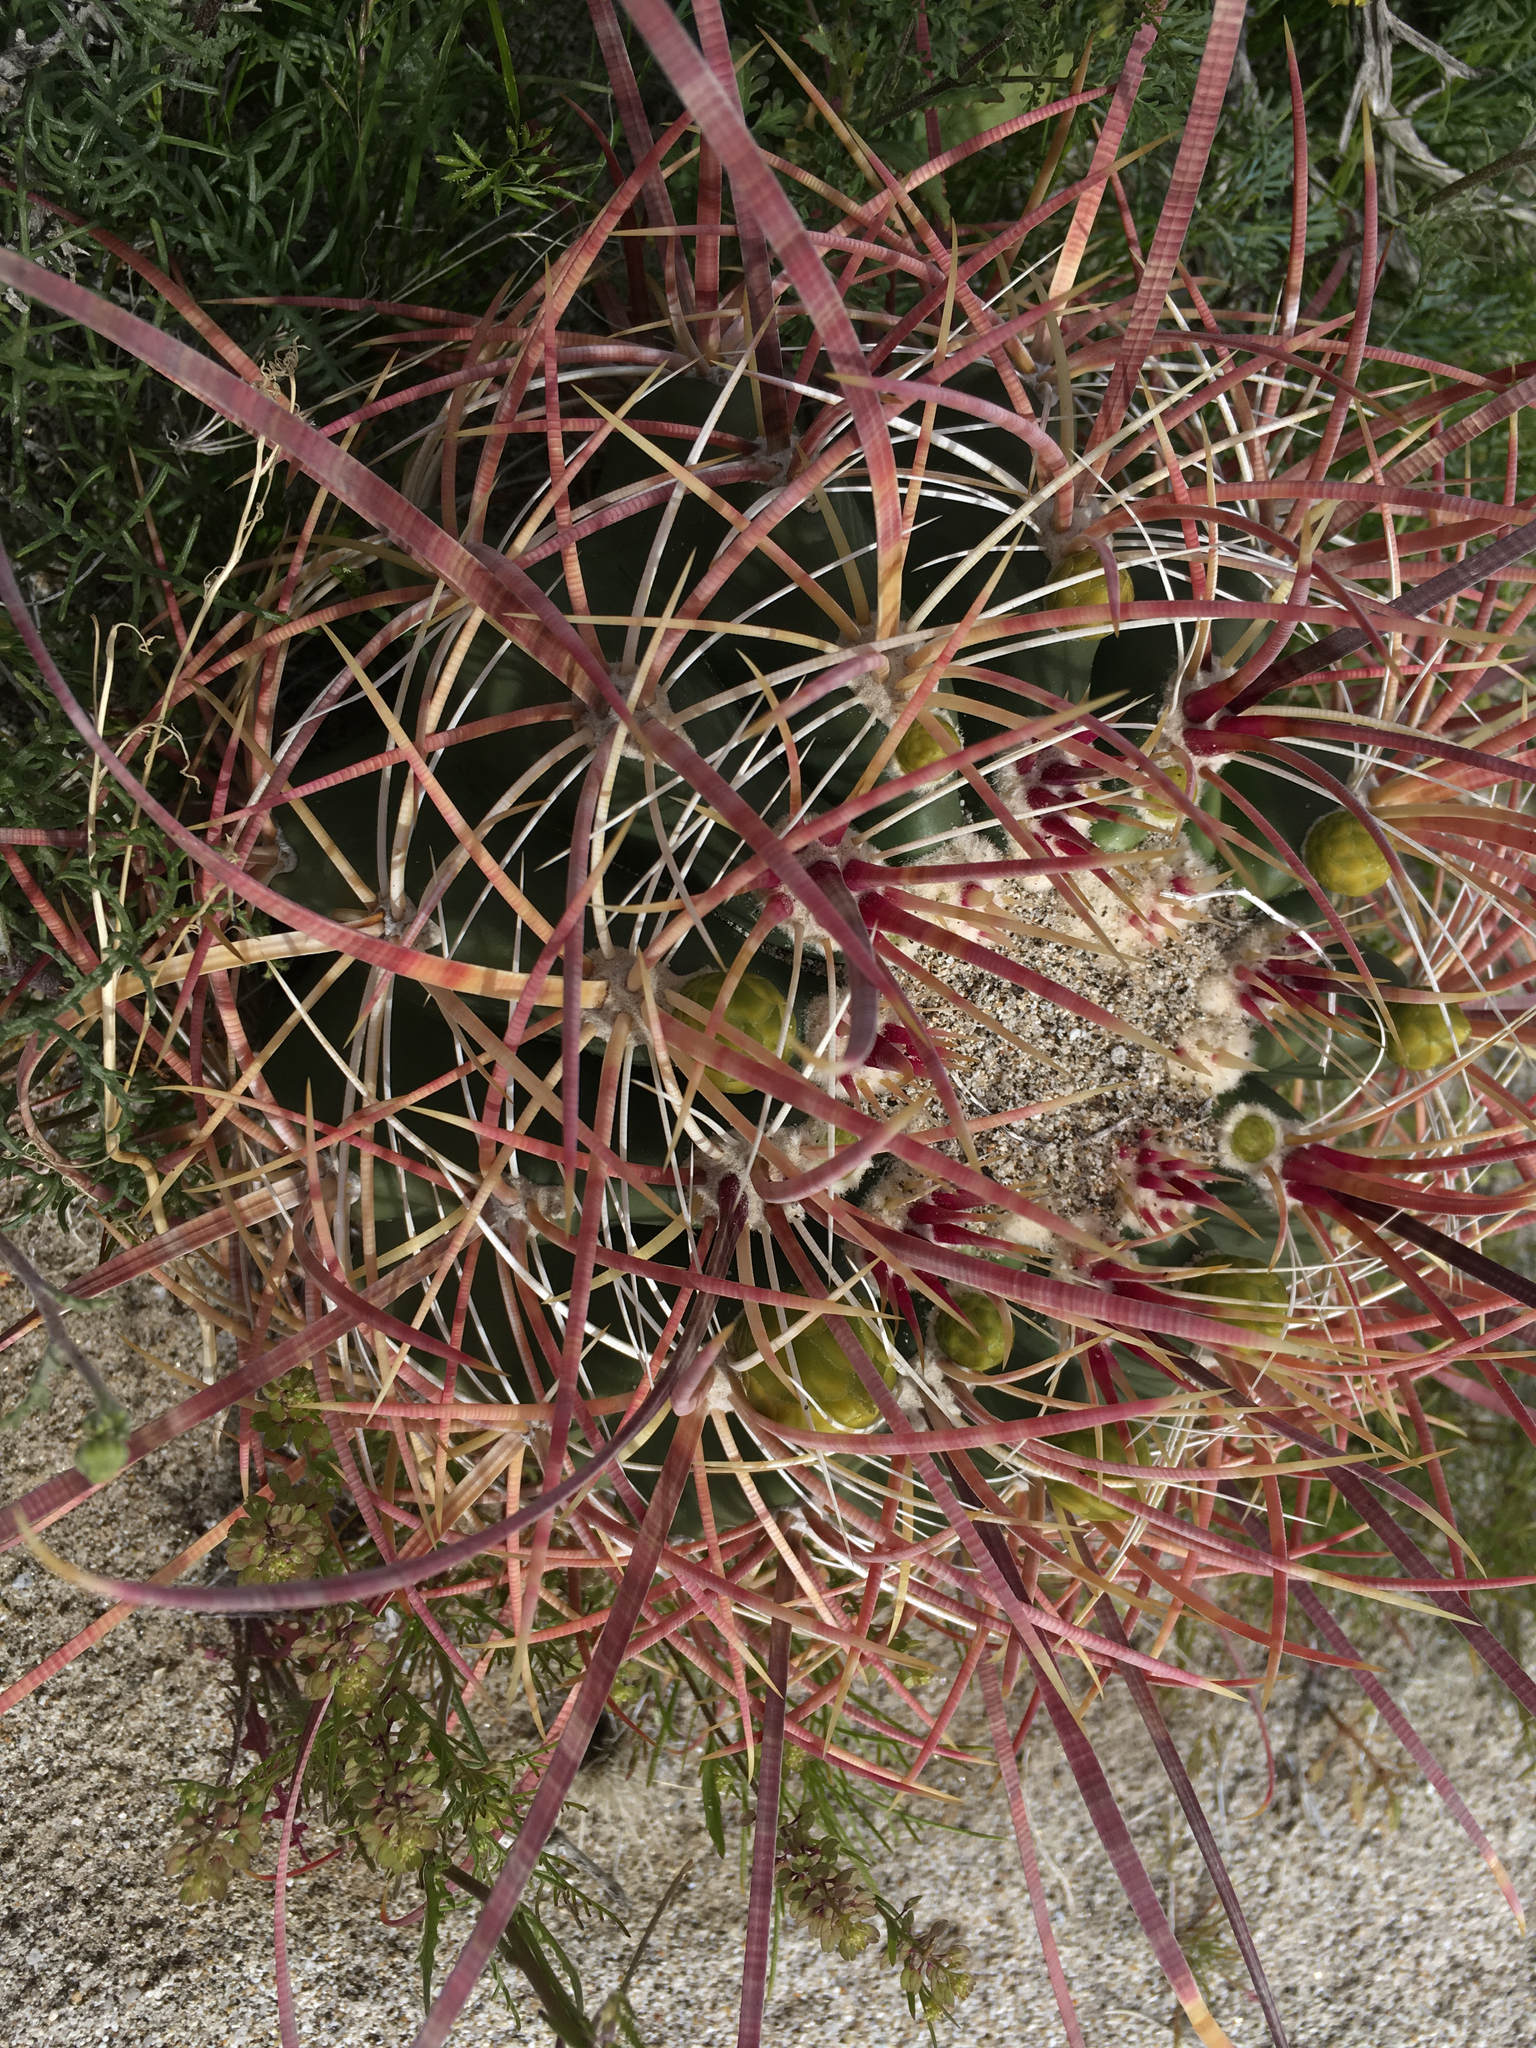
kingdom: Plantae
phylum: Tracheophyta
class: Magnoliopsida
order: Caryophyllales
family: Cactaceae
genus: Ferocactus
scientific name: Ferocactus cylindraceus
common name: California barrel cactus
